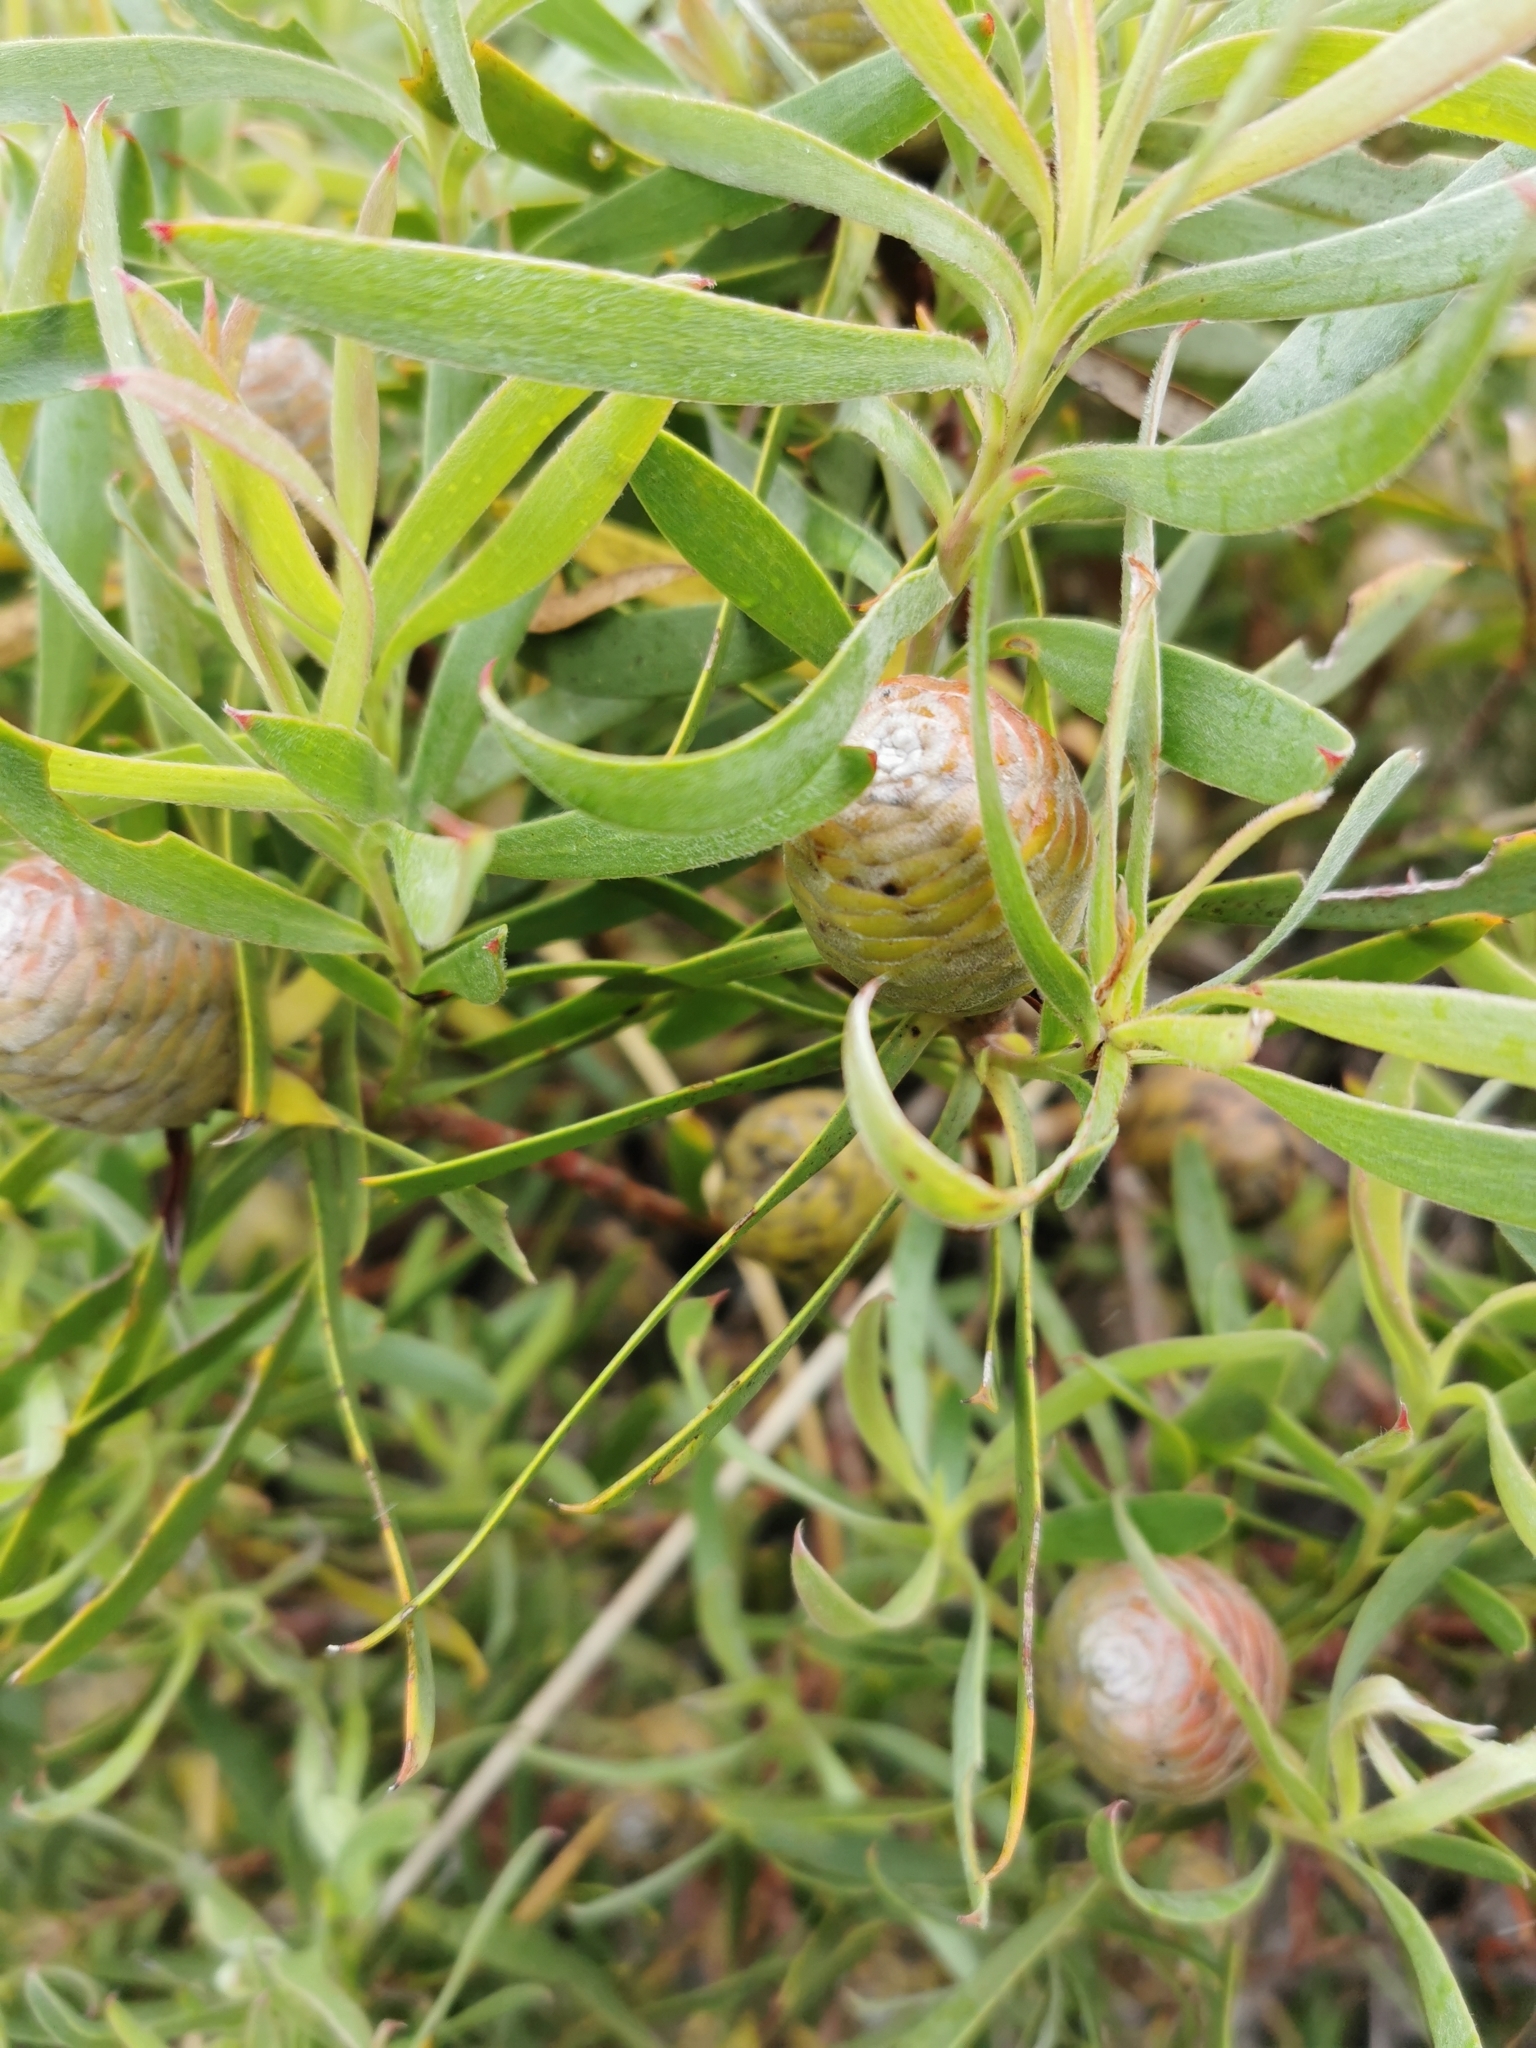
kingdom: Plantae
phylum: Tracheophyta
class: Magnoliopsida
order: Proteales
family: Proteaceae
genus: Leucadendron
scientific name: Leucadendron coniferum
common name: Dune conebush
